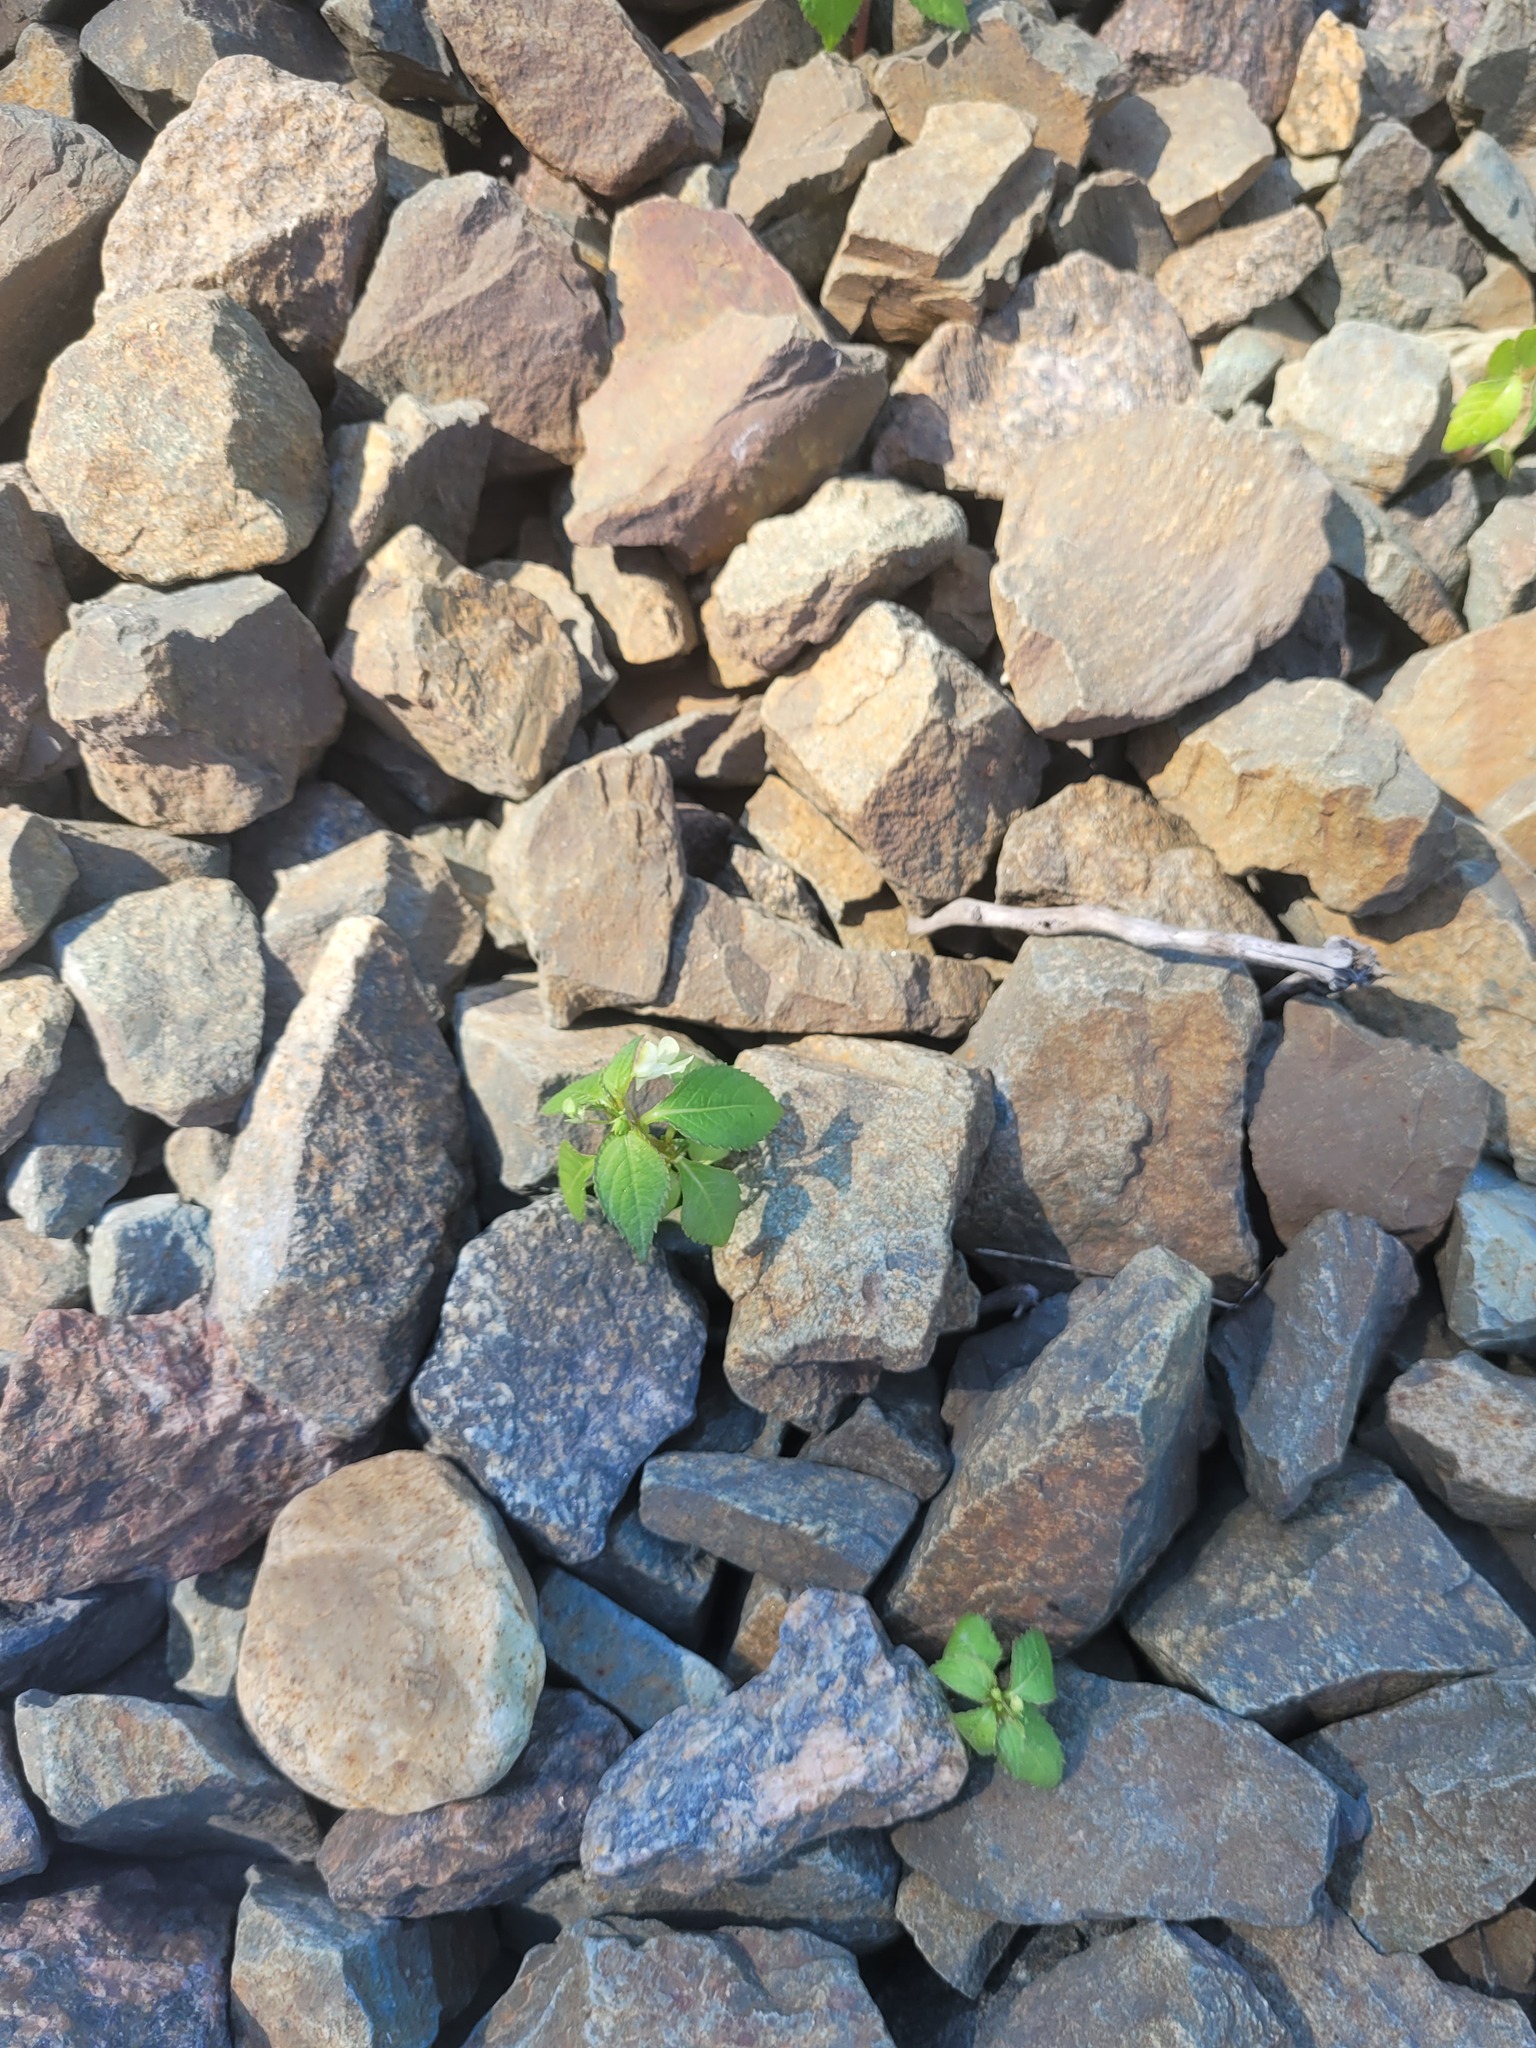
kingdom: Plantae
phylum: Tracheophyta
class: Magnoliopsida
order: Ericales
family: Balsaminaceae
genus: Impatiens
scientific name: Impatiens parviflora
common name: Small balsam
